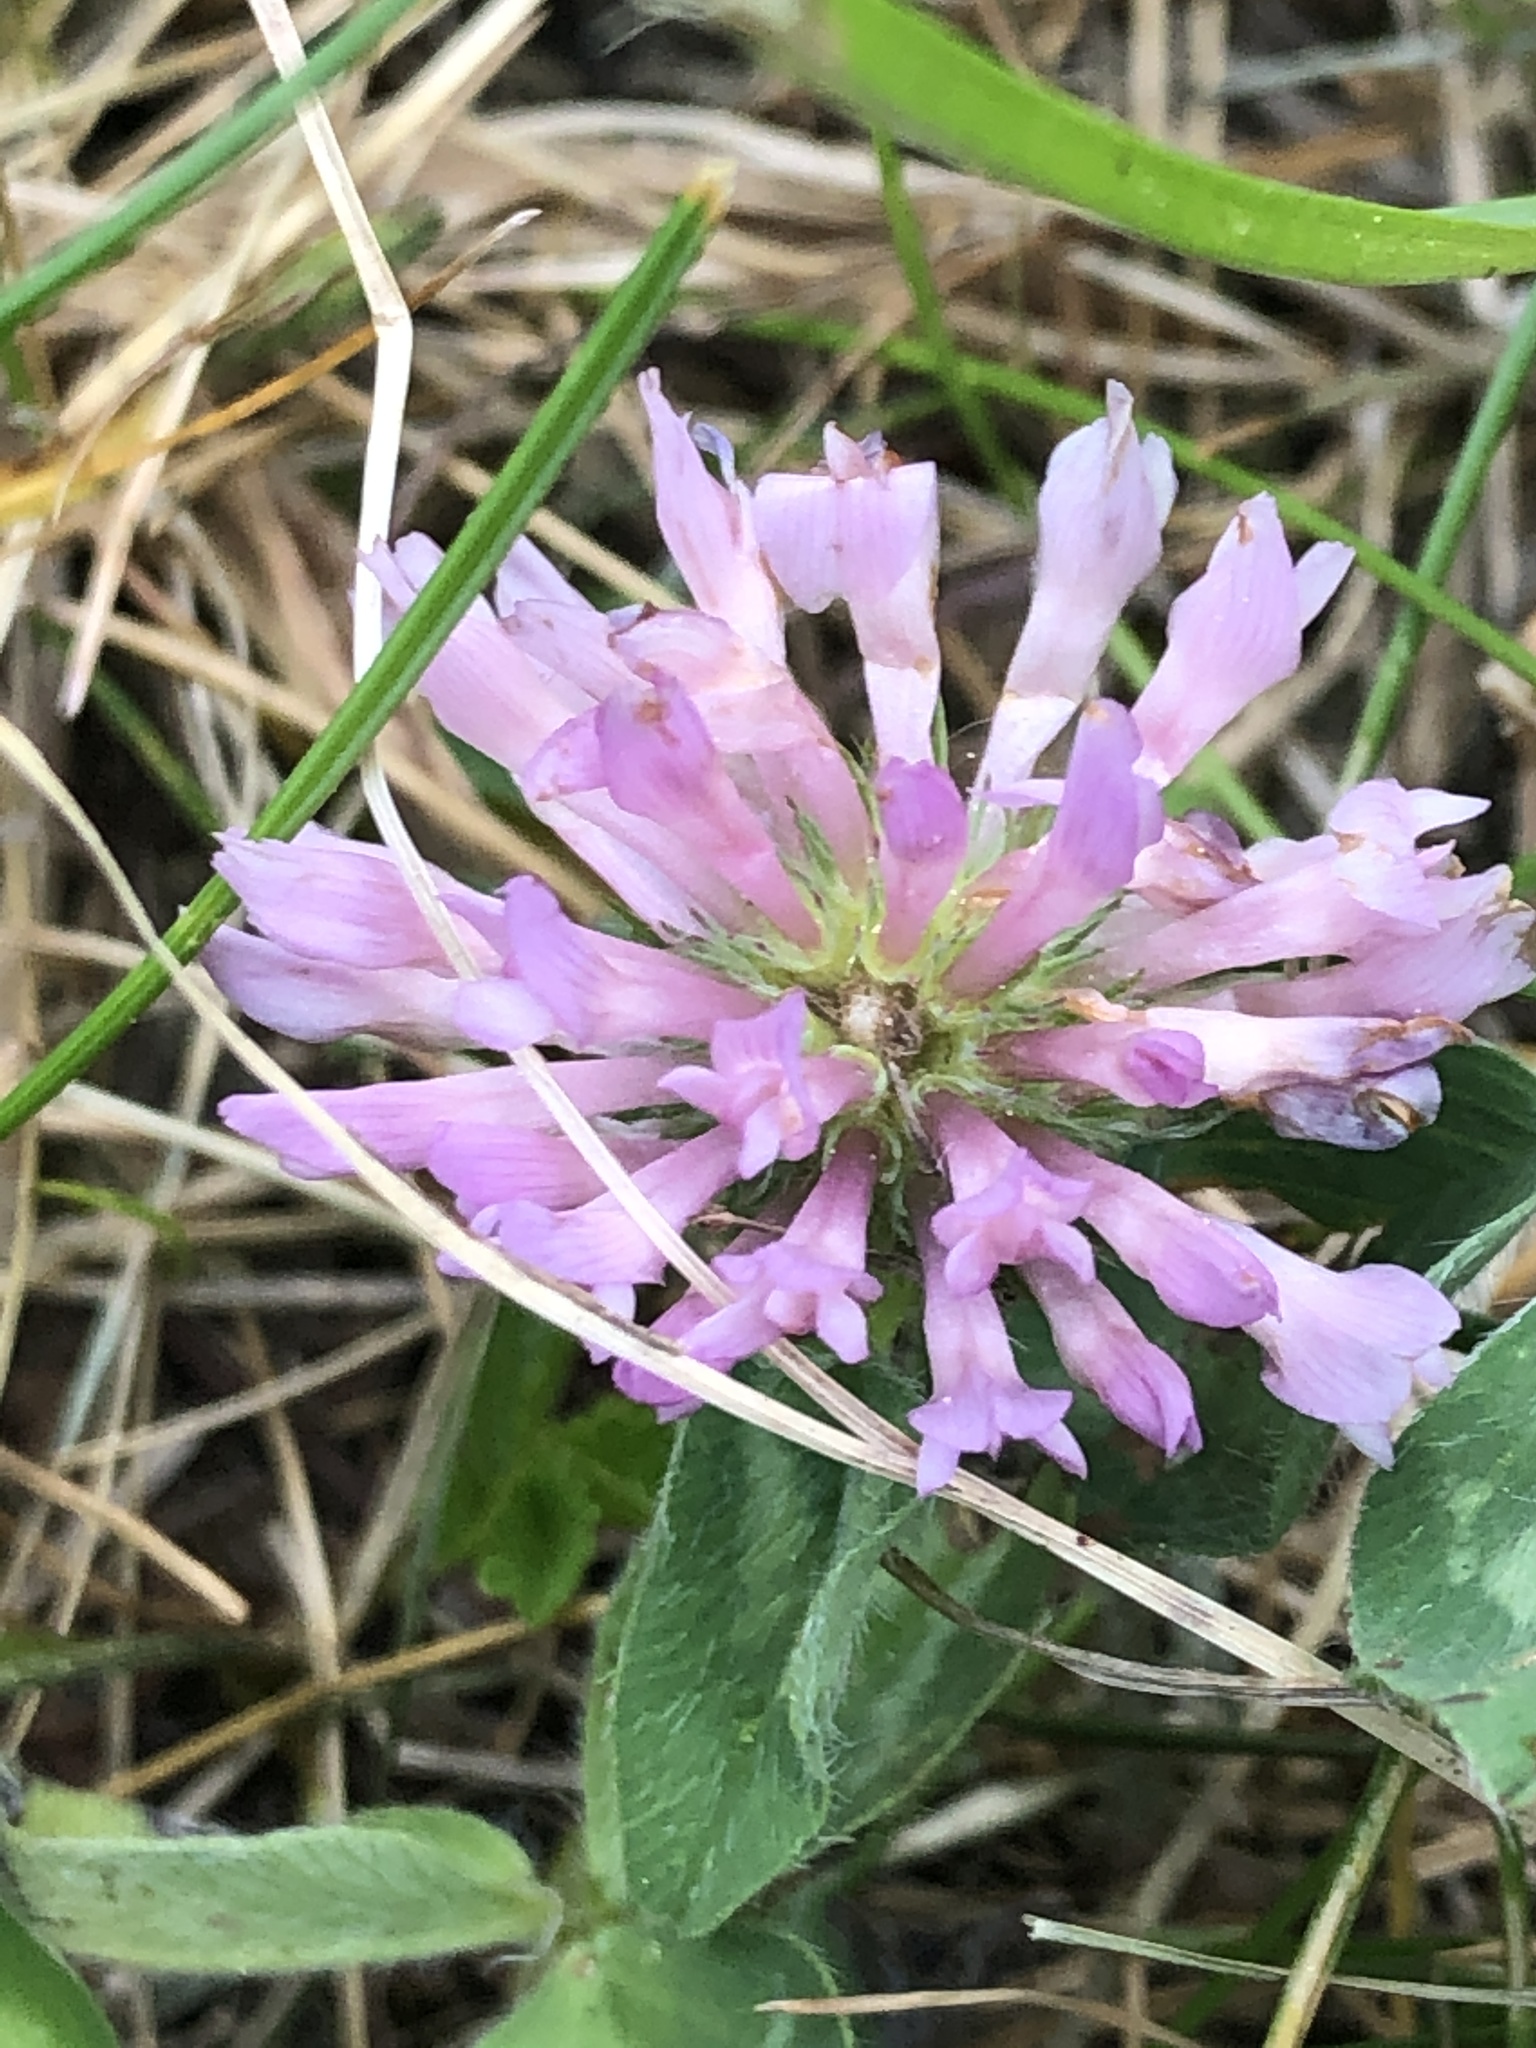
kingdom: Plantae
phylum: Tracheophyta
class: Magnoliopsida
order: Fabales
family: Fabaceae
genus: Trifolium
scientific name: Trifolium pratense
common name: Red clover
